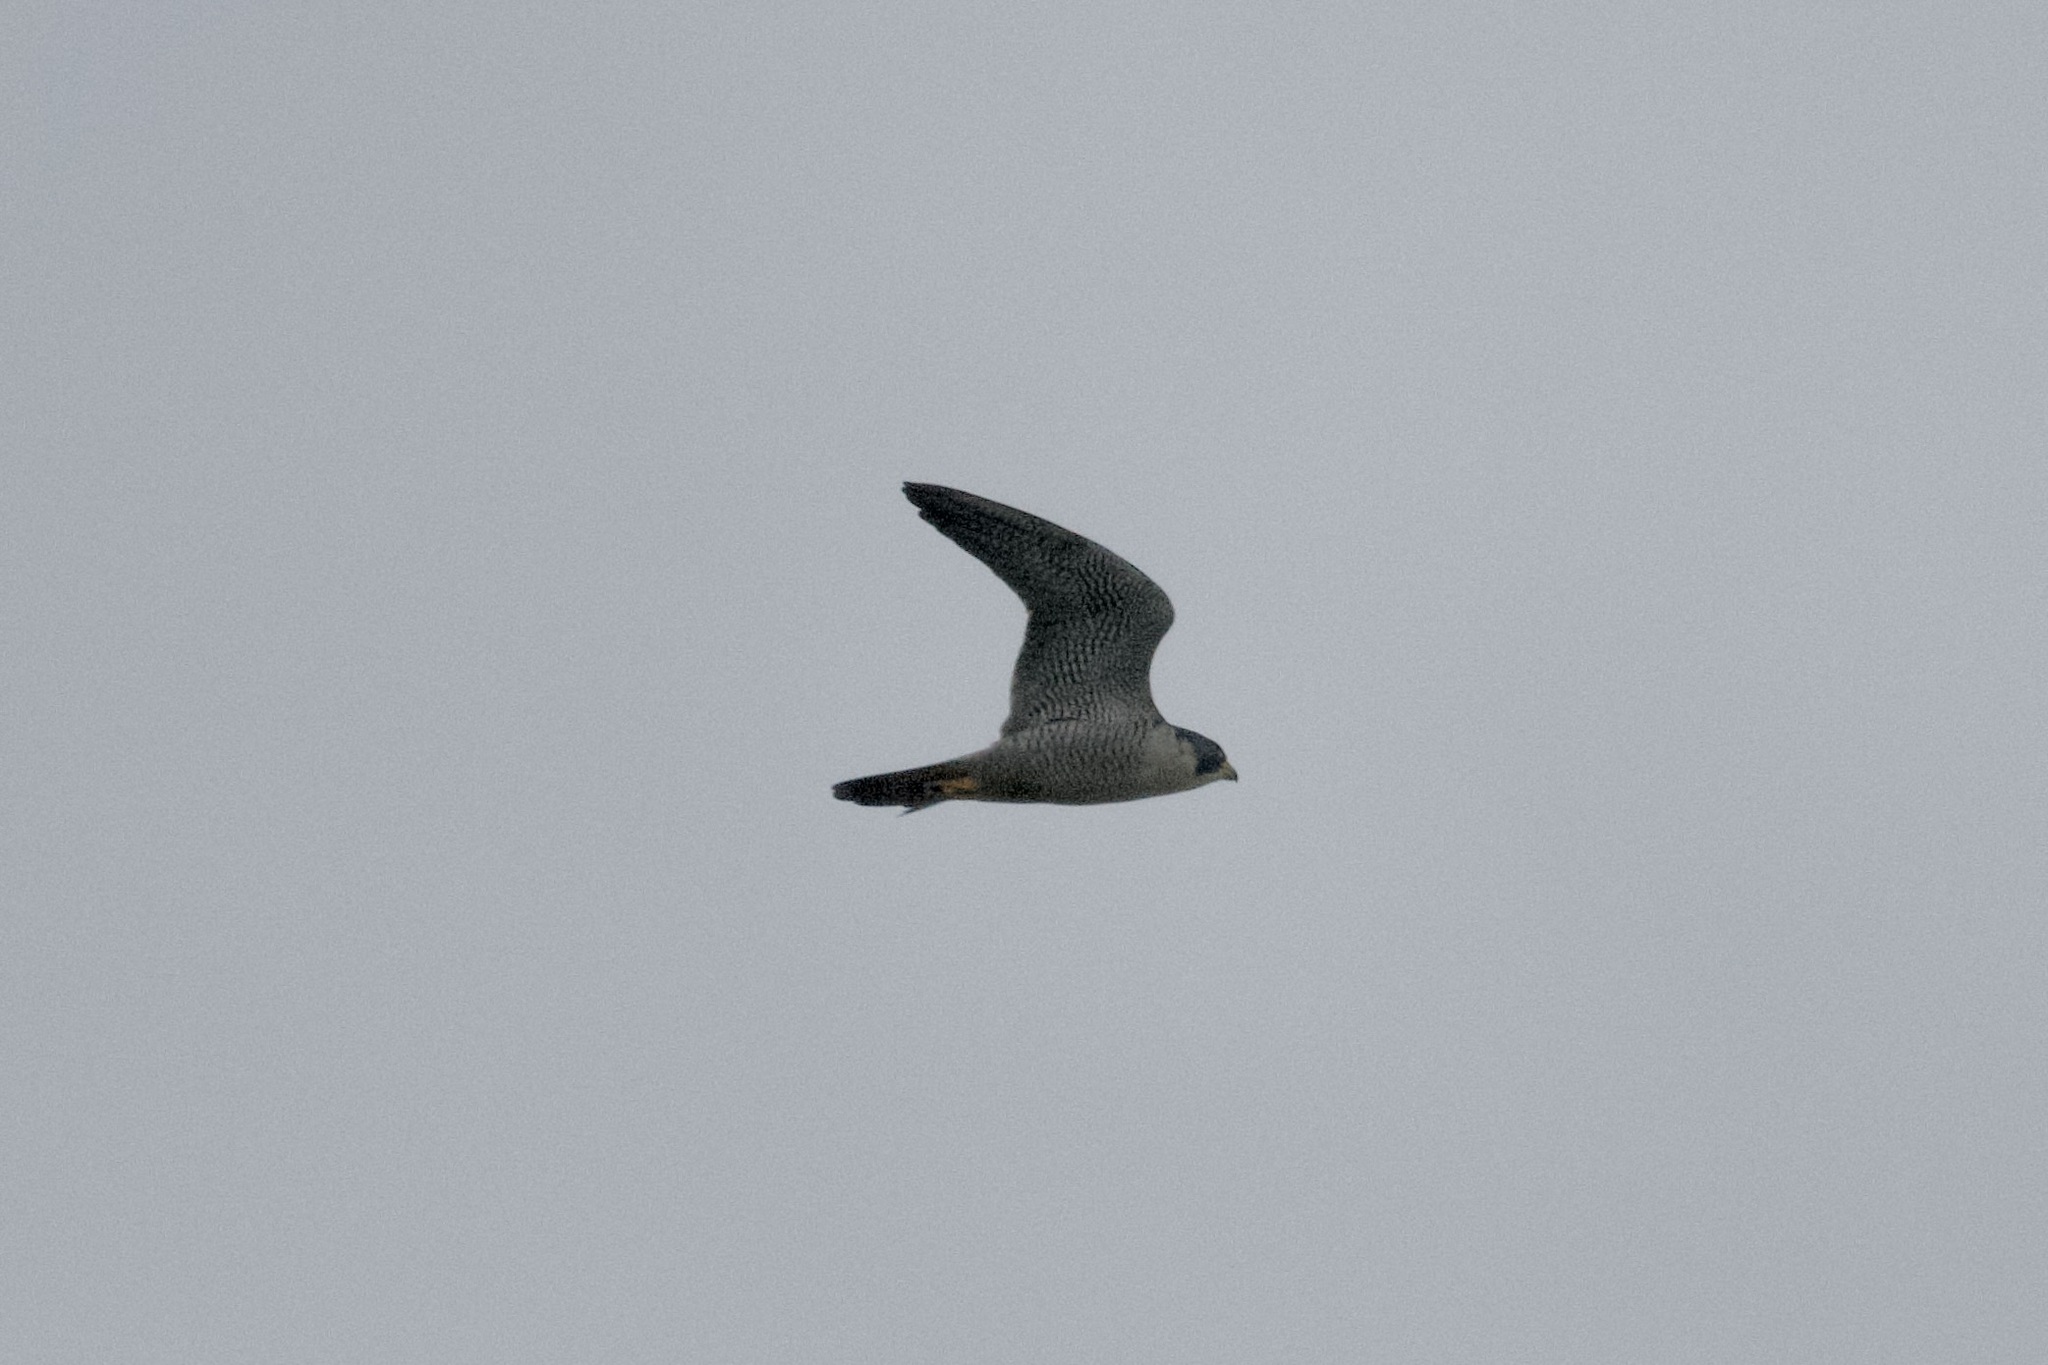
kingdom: Animalia
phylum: Chordata
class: Aves
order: Falconiformes
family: Falconidae
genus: Falco
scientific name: Falco peregrinus
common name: Peregrine falcon
